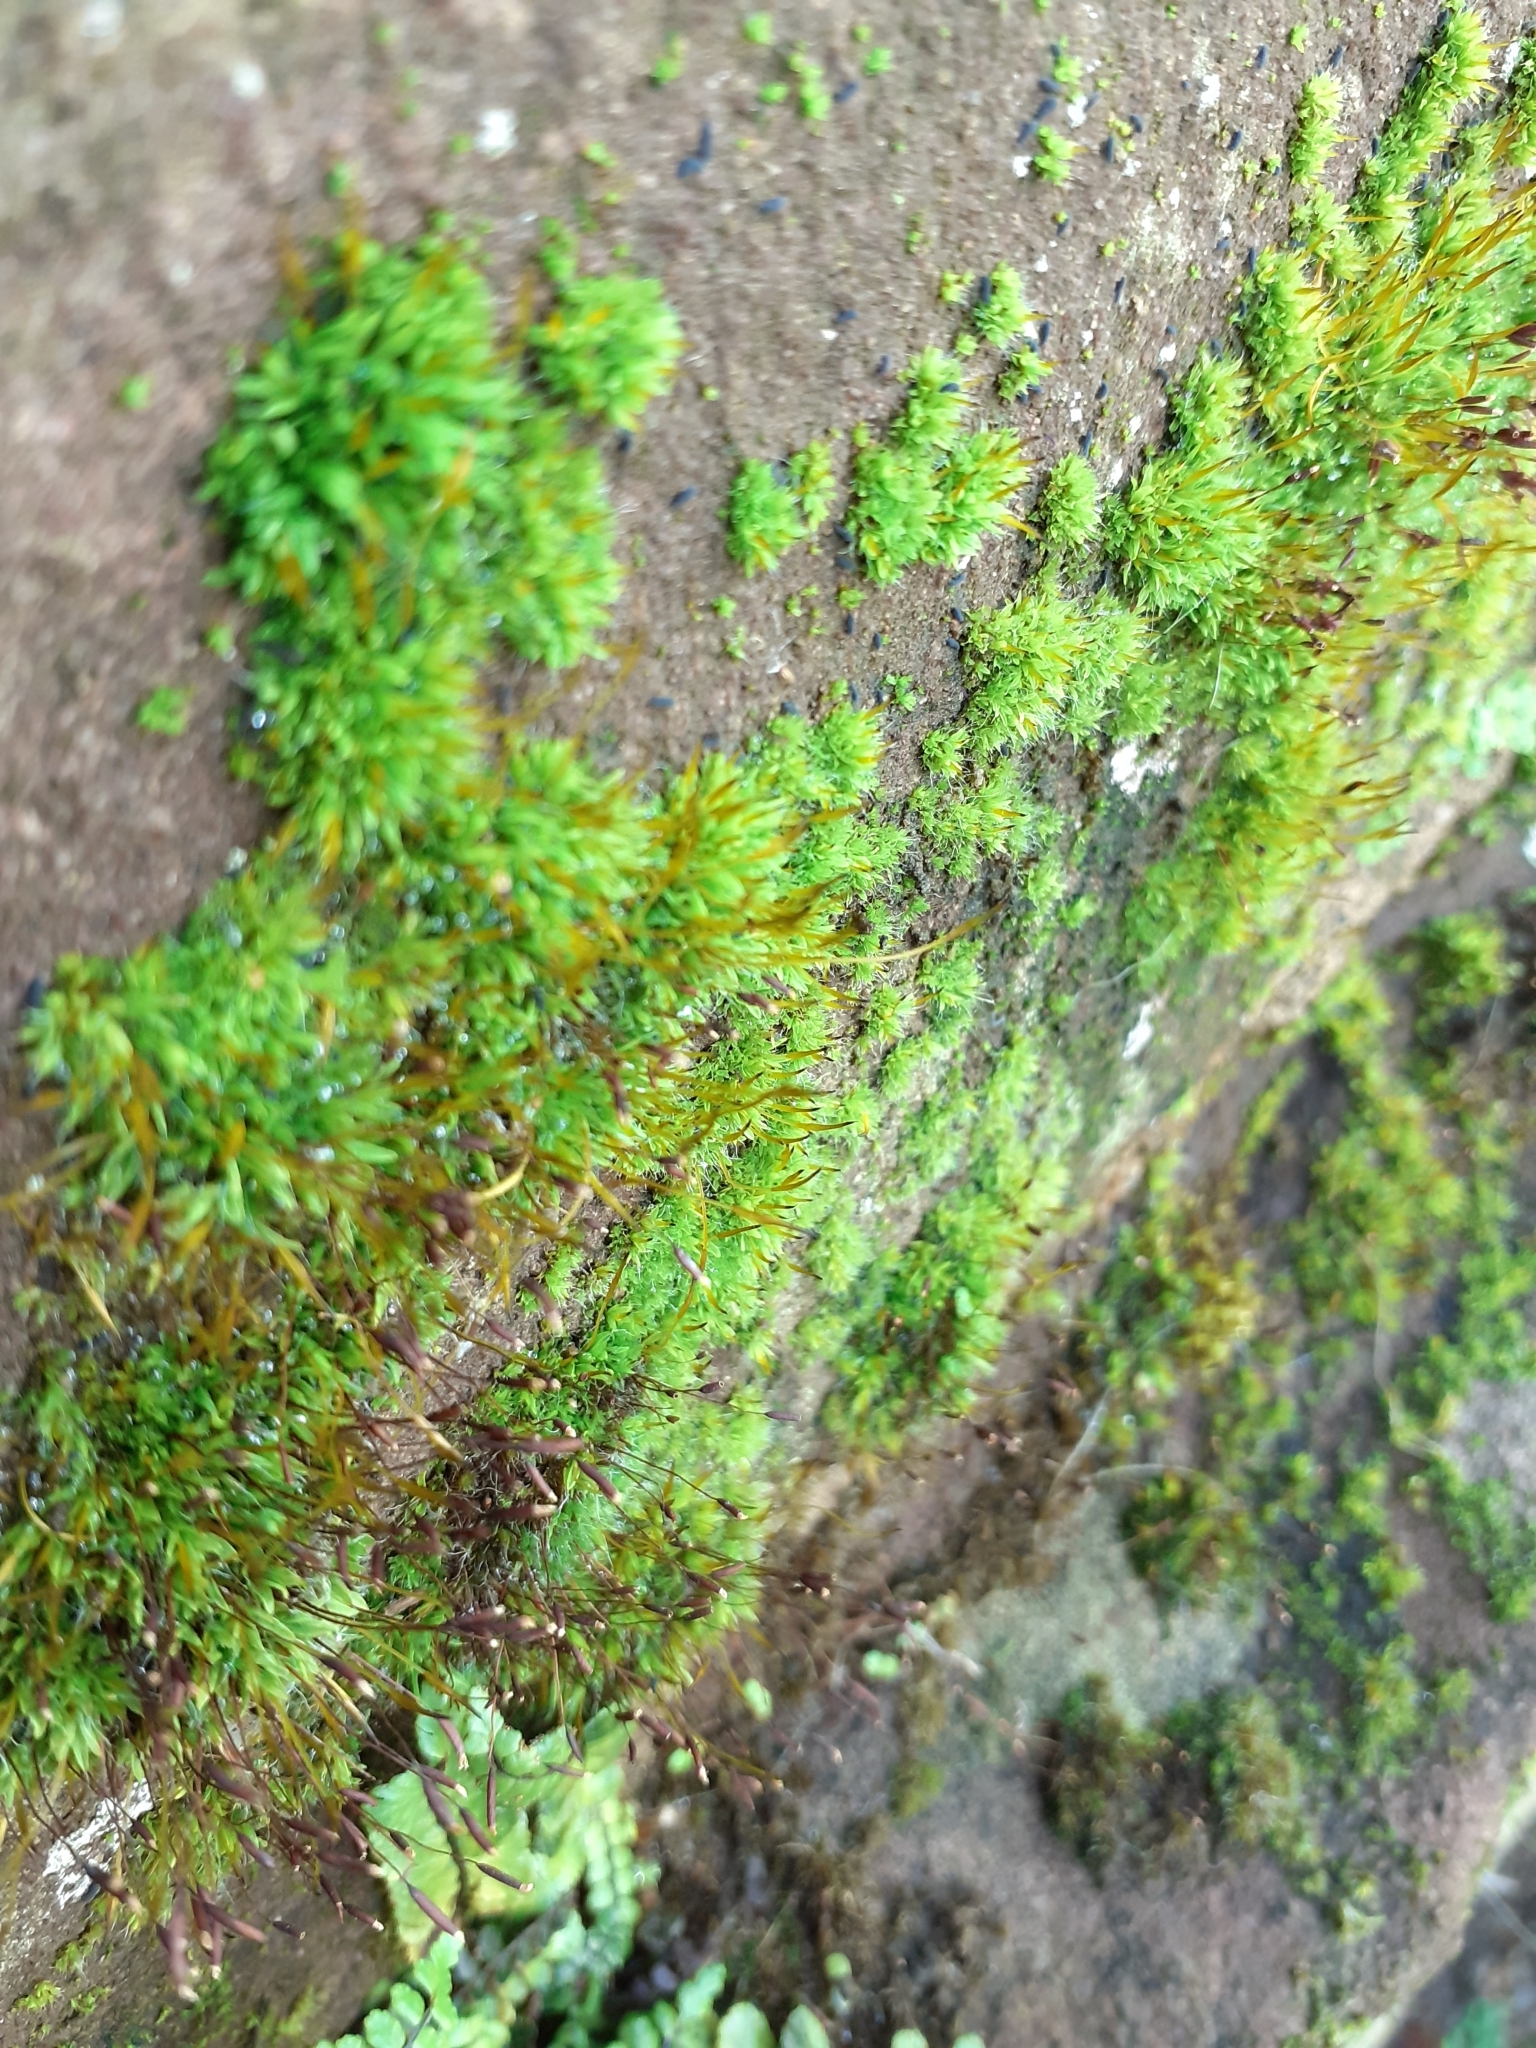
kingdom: Plantae
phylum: Bryophyta
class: Bryopsida
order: Pottiales
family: Pottiaceae
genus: Tortula
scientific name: Tortula muralis
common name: Wall screw-moss
